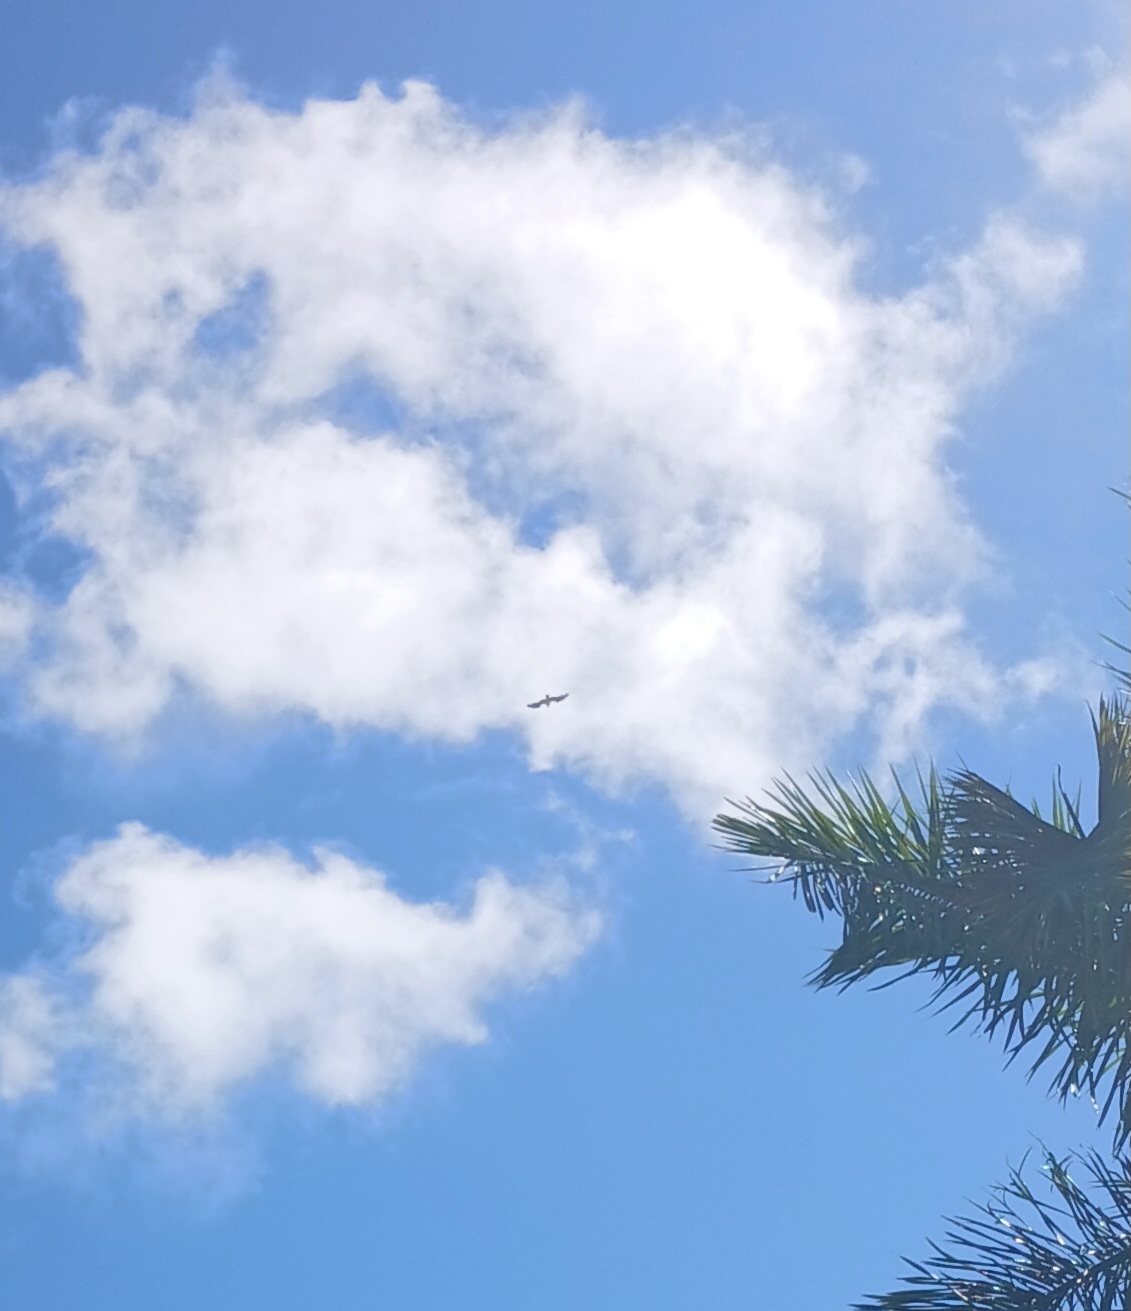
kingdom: Animalia
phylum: Chordata
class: Aves
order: Accipitriformes
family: Pandionidae
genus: Pandion
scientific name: Pandion haliaetus
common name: Osprey
